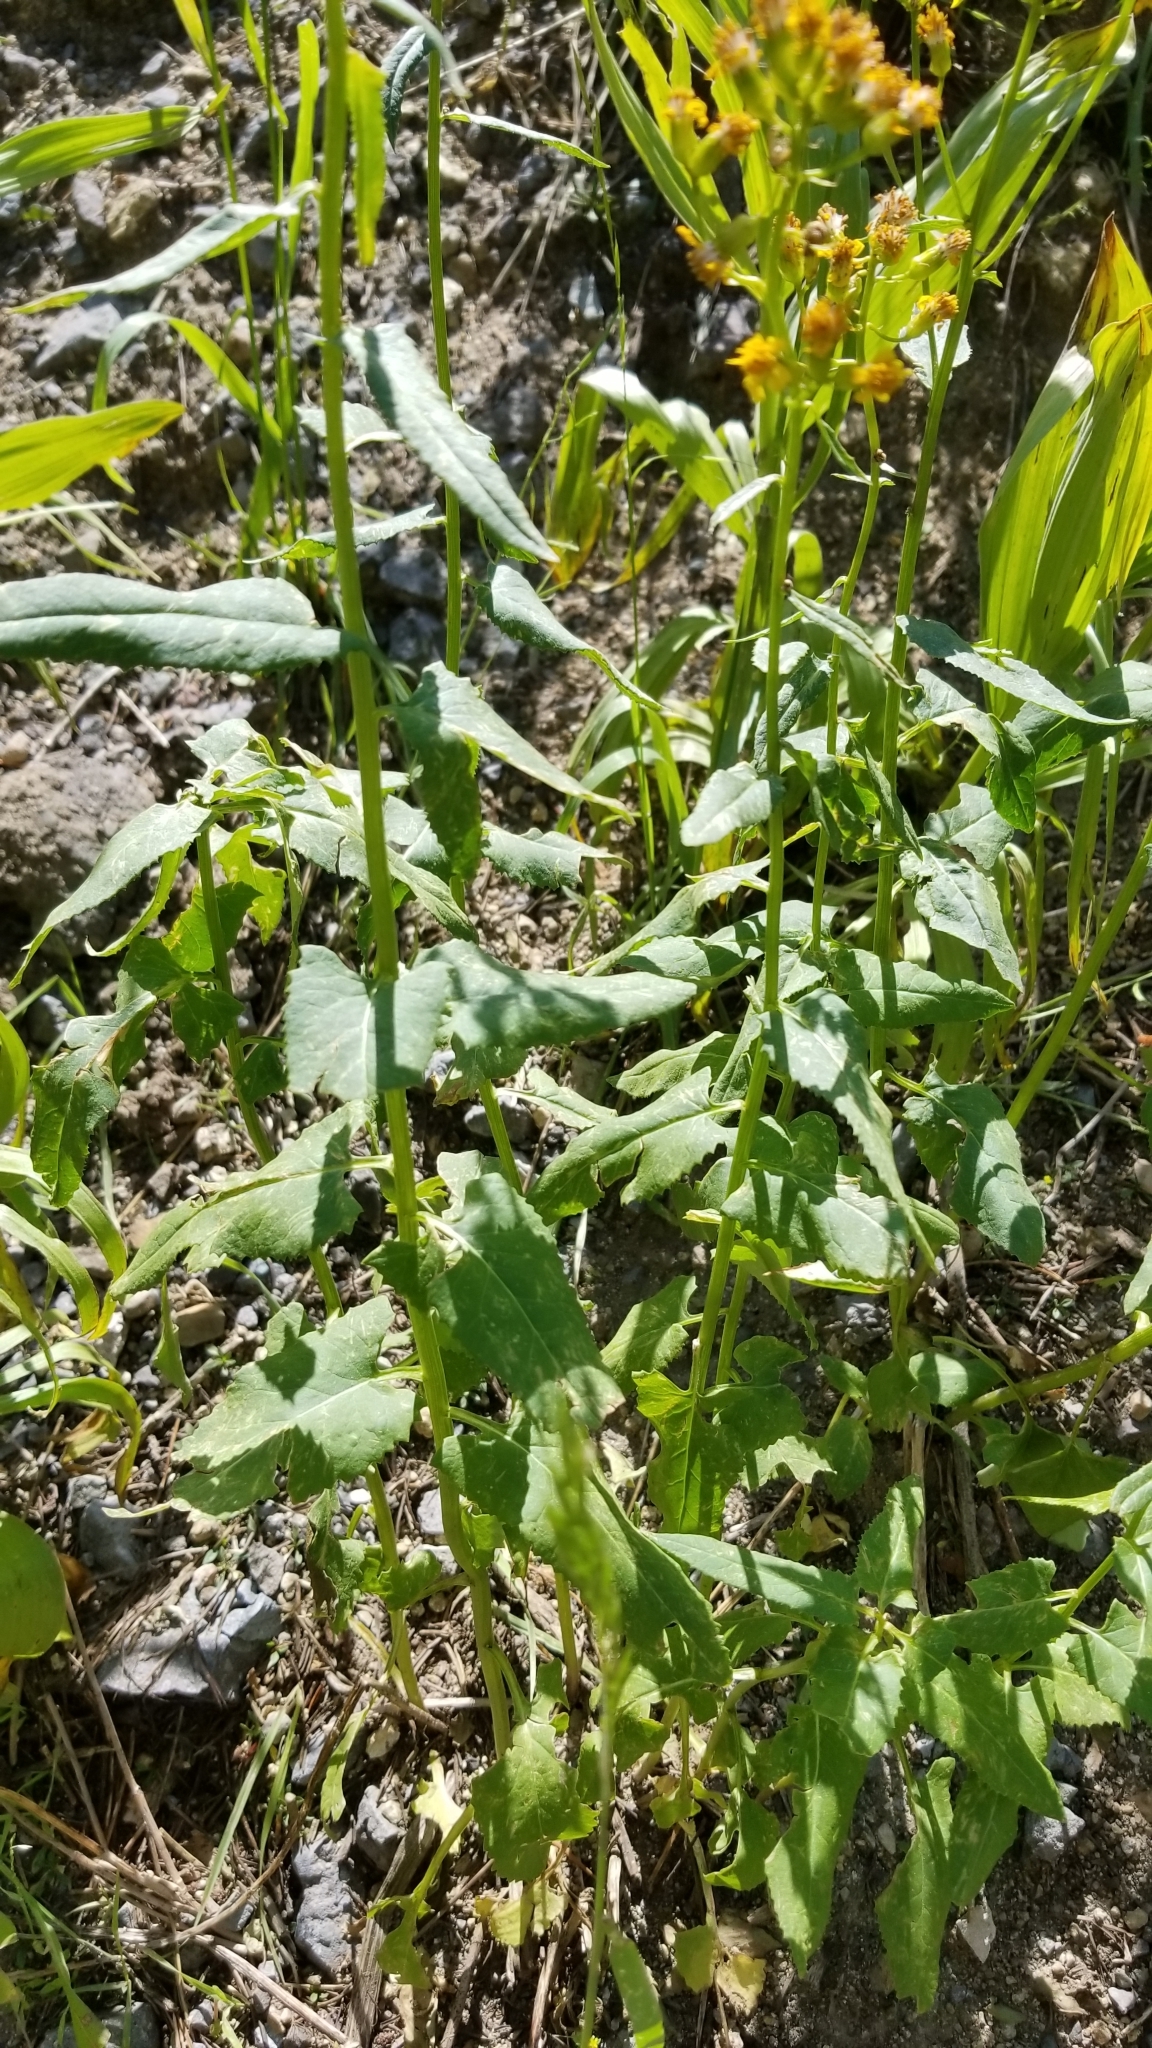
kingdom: Plantae
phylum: Tracheophyta
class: Magnoliopsida
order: Asterales
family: Asteraceae
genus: Senecio
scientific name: Senecio triangularis
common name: Arrowleaf butterweed
